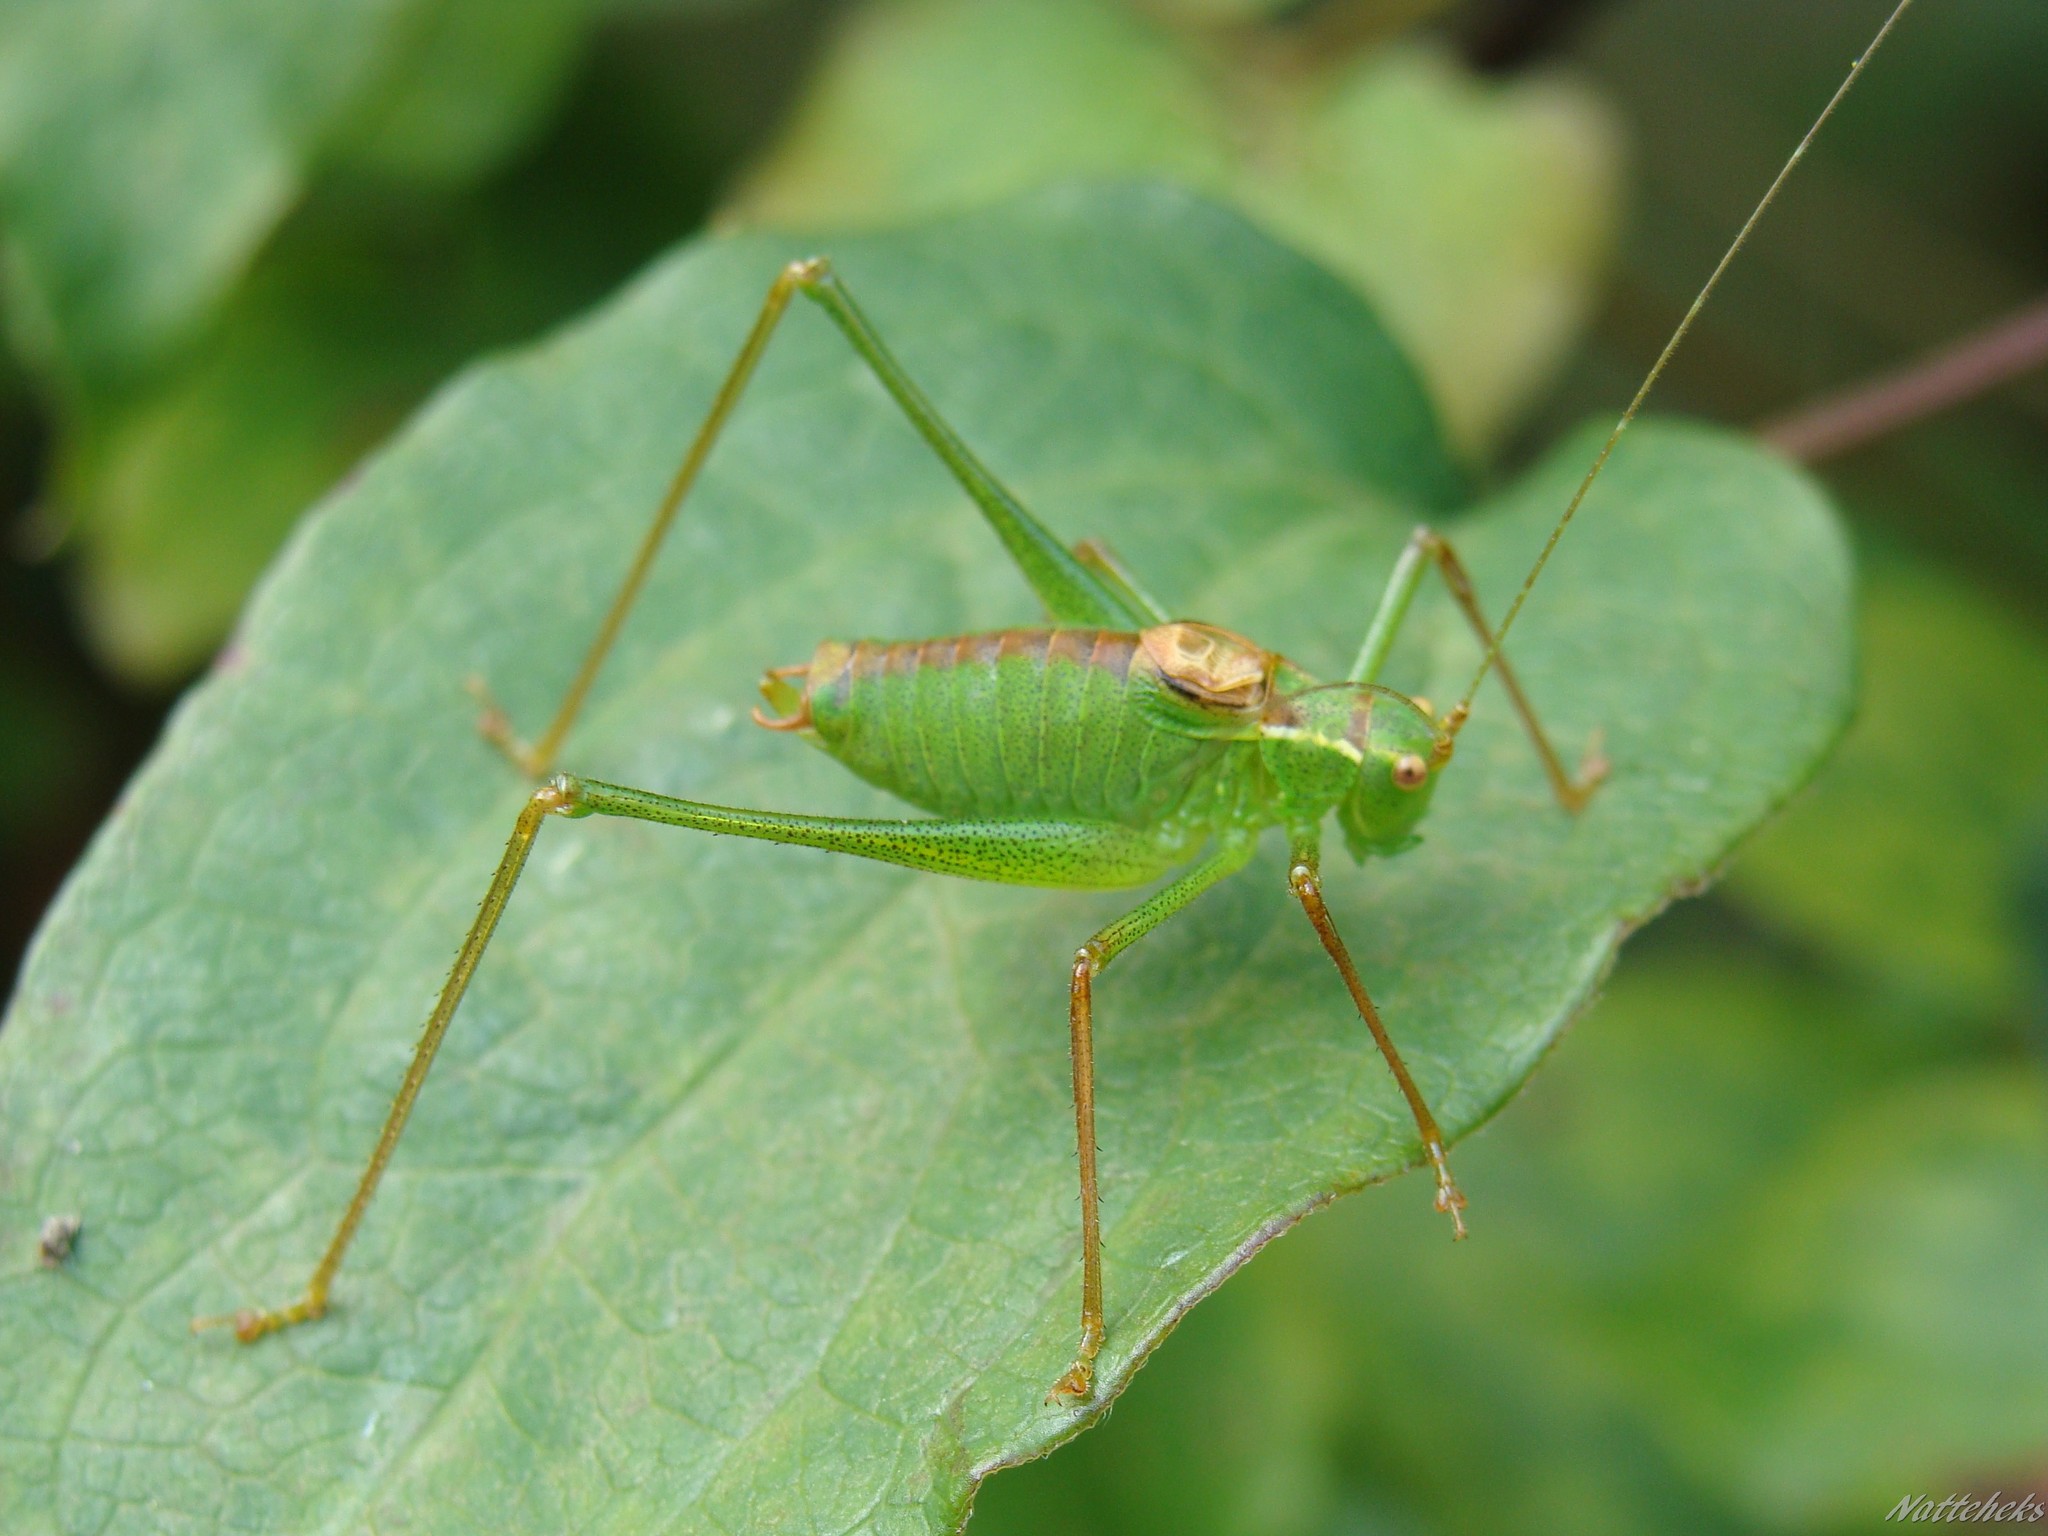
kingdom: Animalia
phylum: Arthropoda
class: Insecta
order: Orthoptera
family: Tettigoniidae
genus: Leptophyes
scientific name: Leptophyes punctatissima
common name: Speckled bush-cricket
